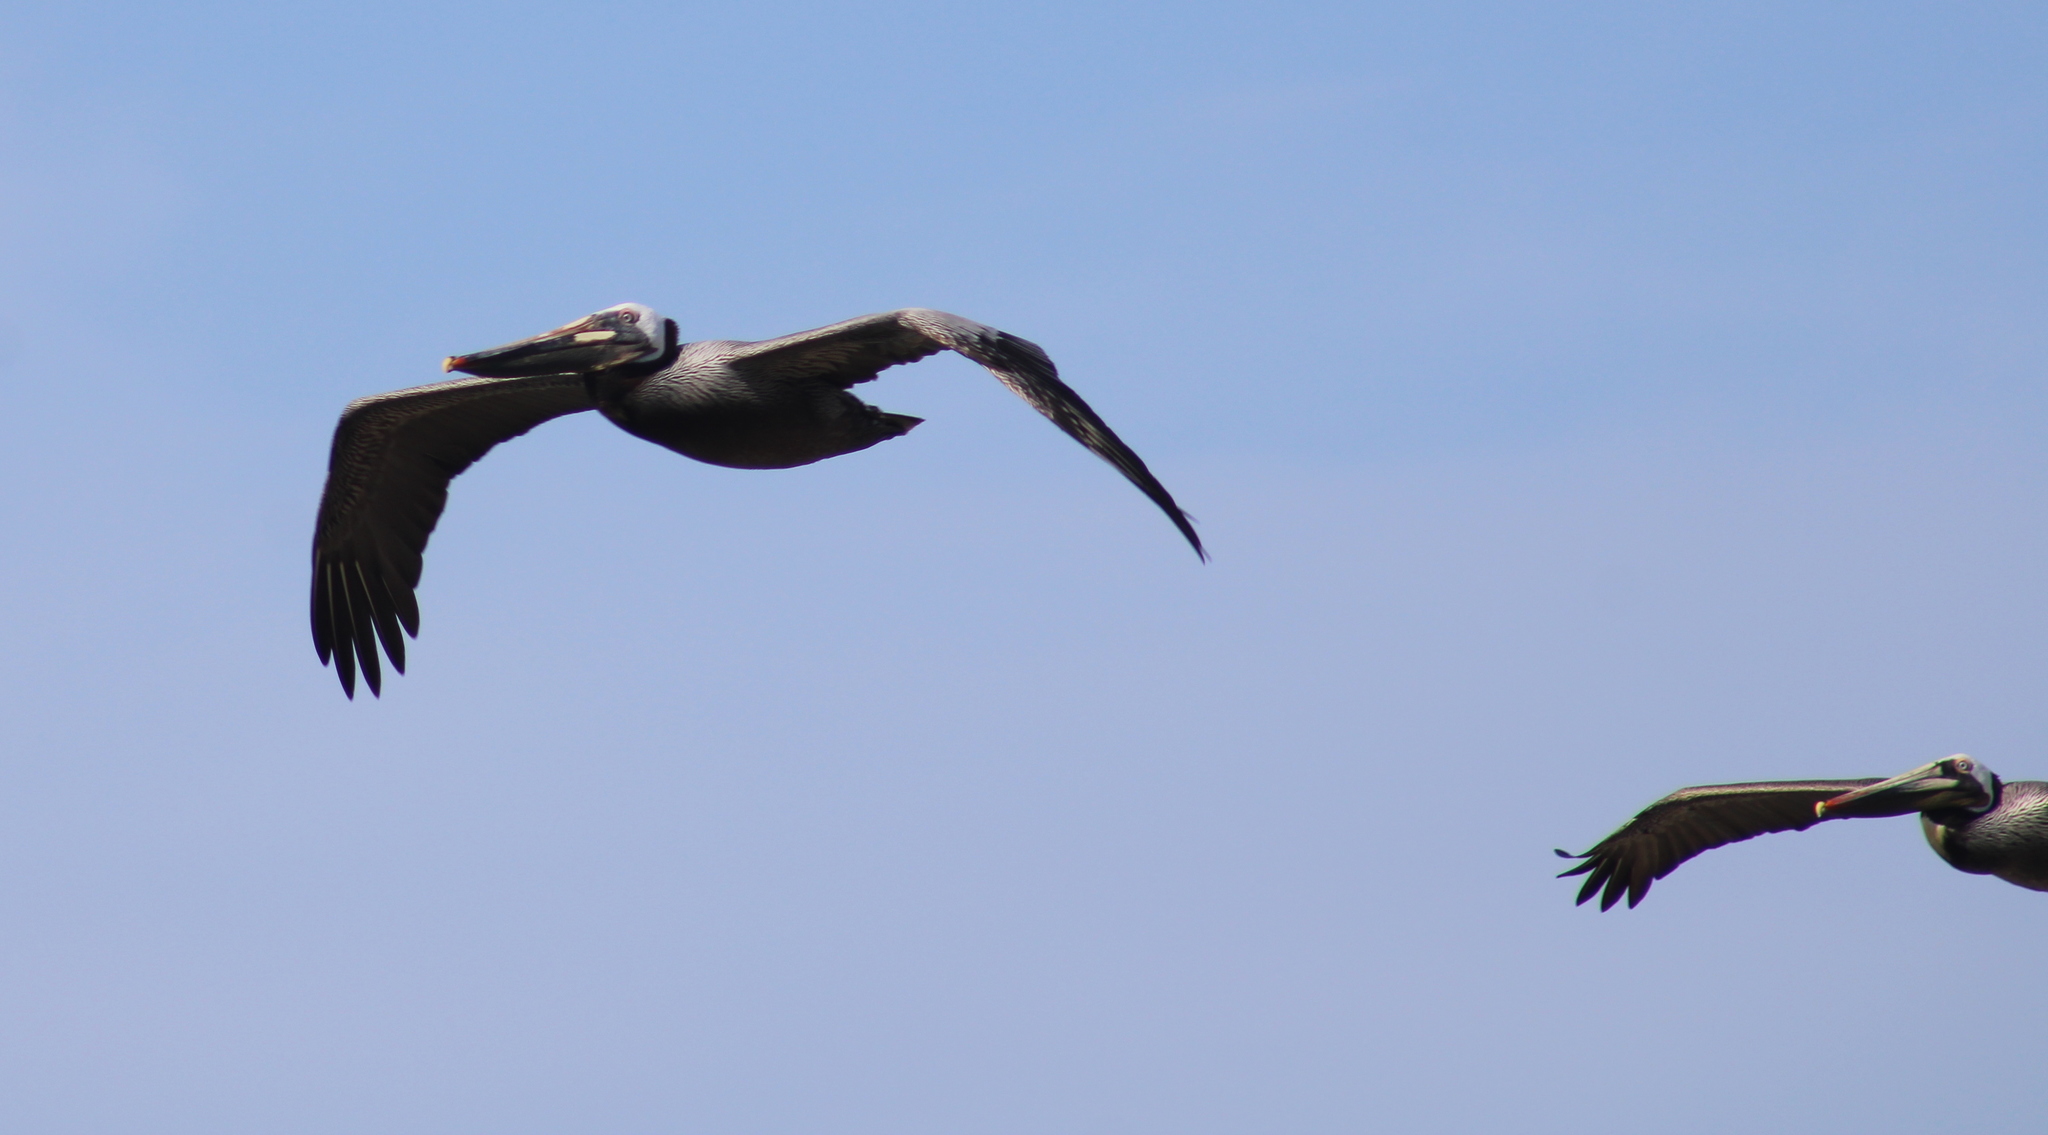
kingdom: Animalia
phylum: Chordata
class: Aves
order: Pelecaniformes
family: Pelecanidae
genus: Pelecanus
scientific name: Pelecanus occidentalis
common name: Brown pelican
